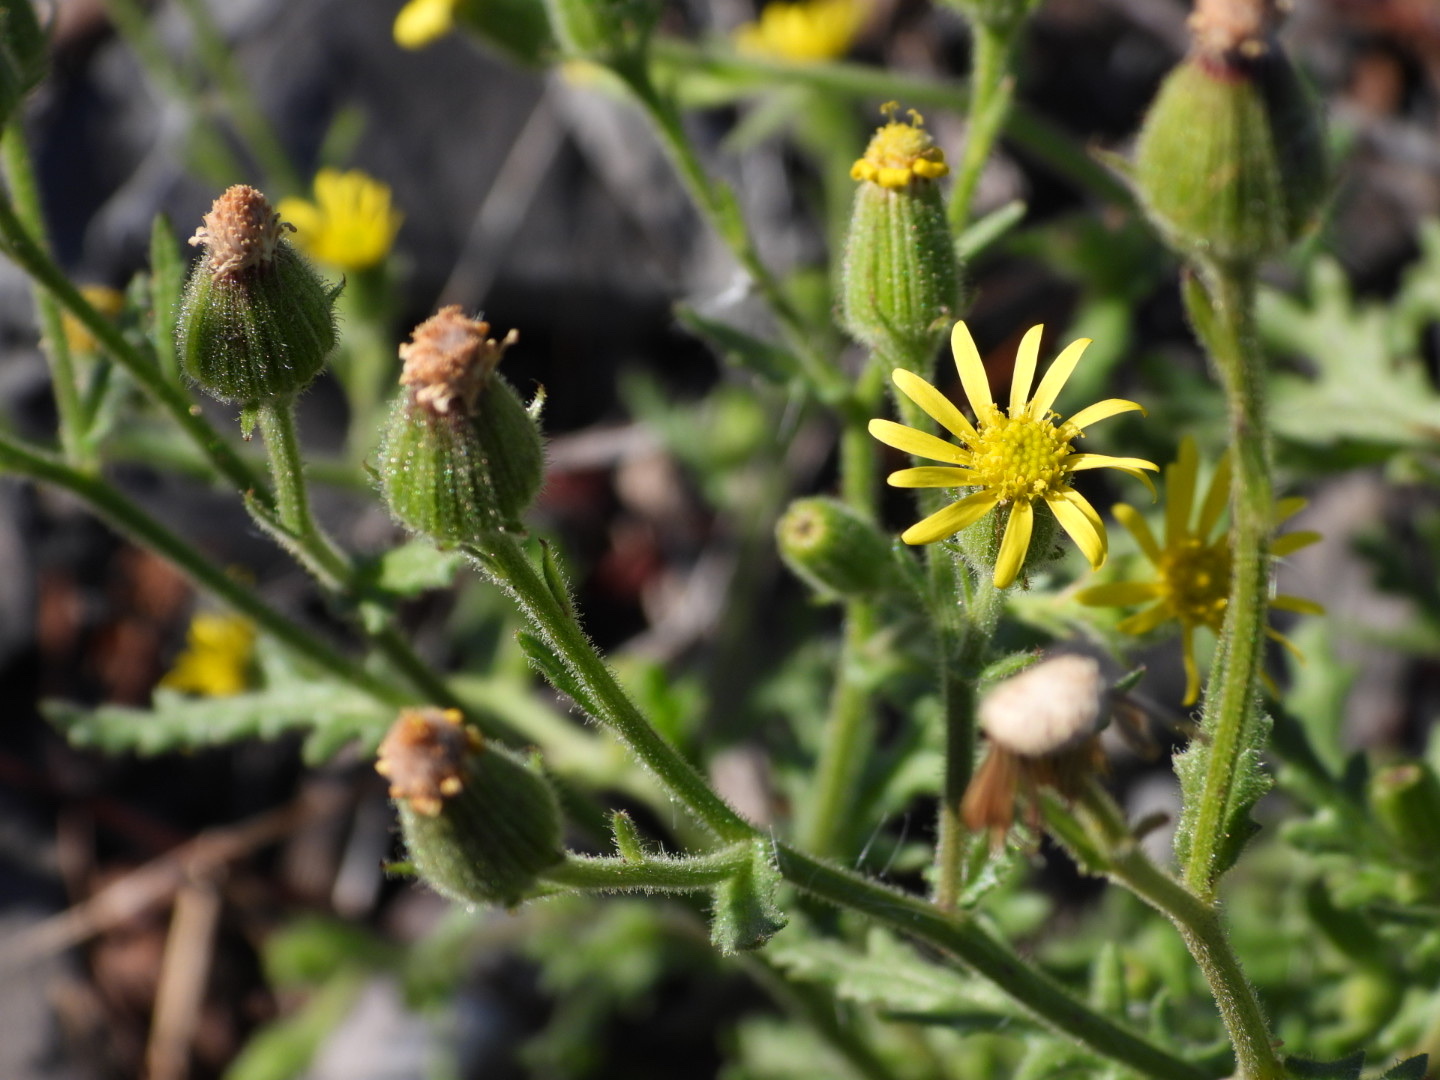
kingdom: Plantae
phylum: Tracheophyta
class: Magnoliopsida
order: Asterales
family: Asteraceae
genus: Senecio
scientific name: Senecio viscosus
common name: Sticky groundsel
